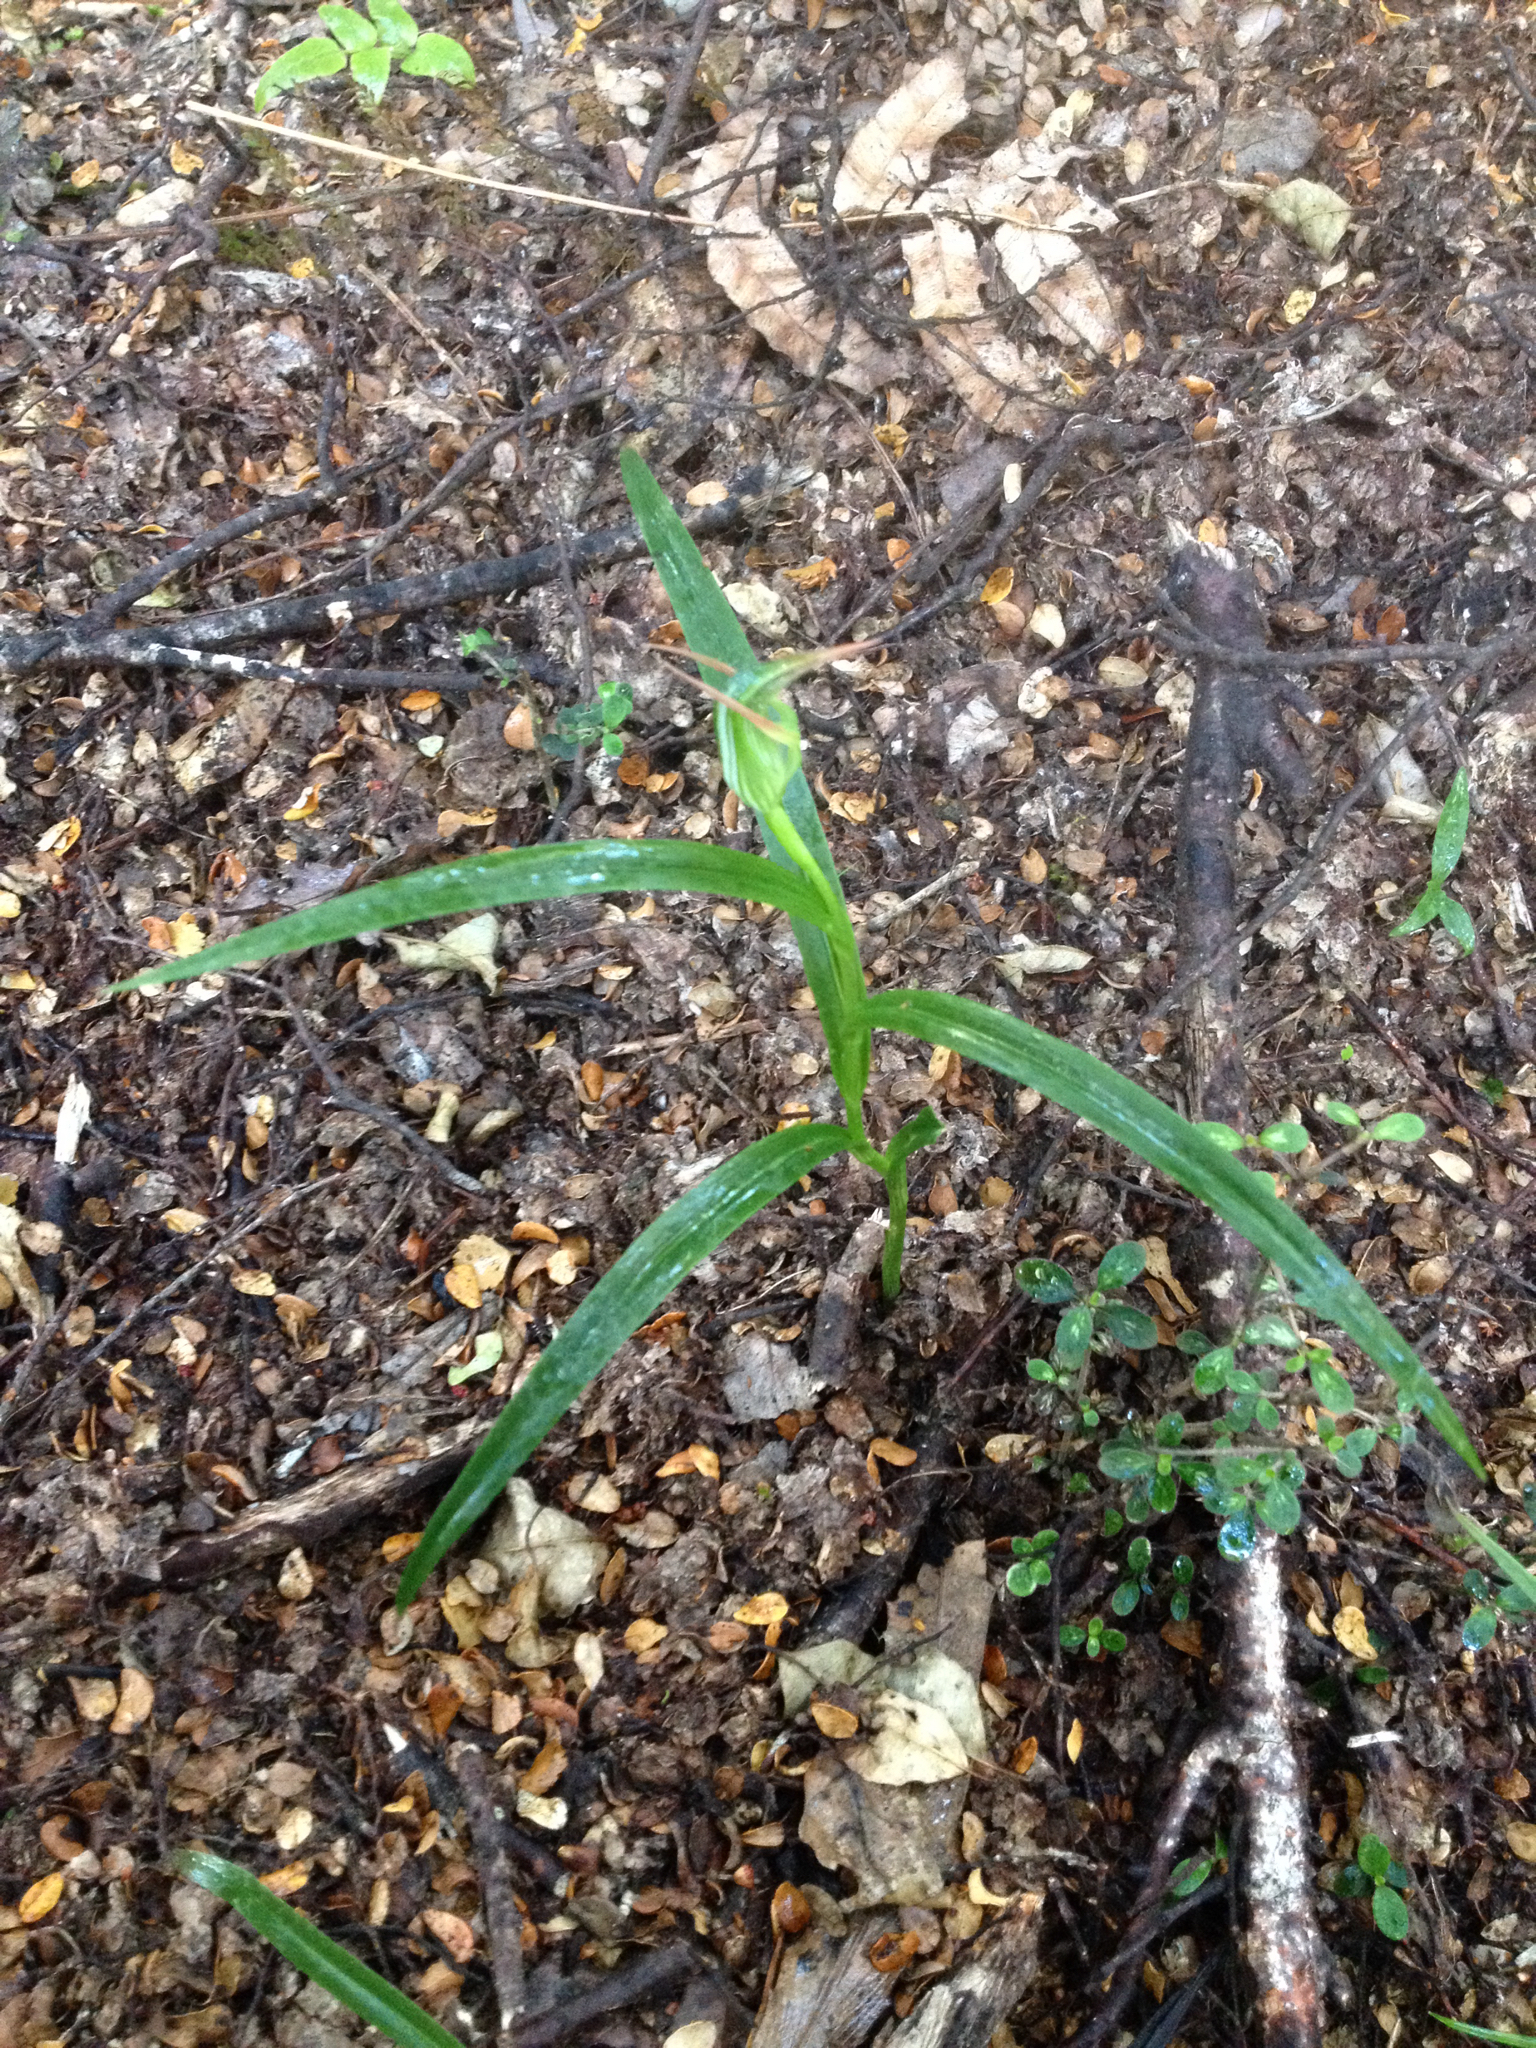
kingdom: Plantae
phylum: Tracheophyta
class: Liliopsida
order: Asparagales
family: Orchidaceae
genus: Pterostylis
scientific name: Pterostylis montana
